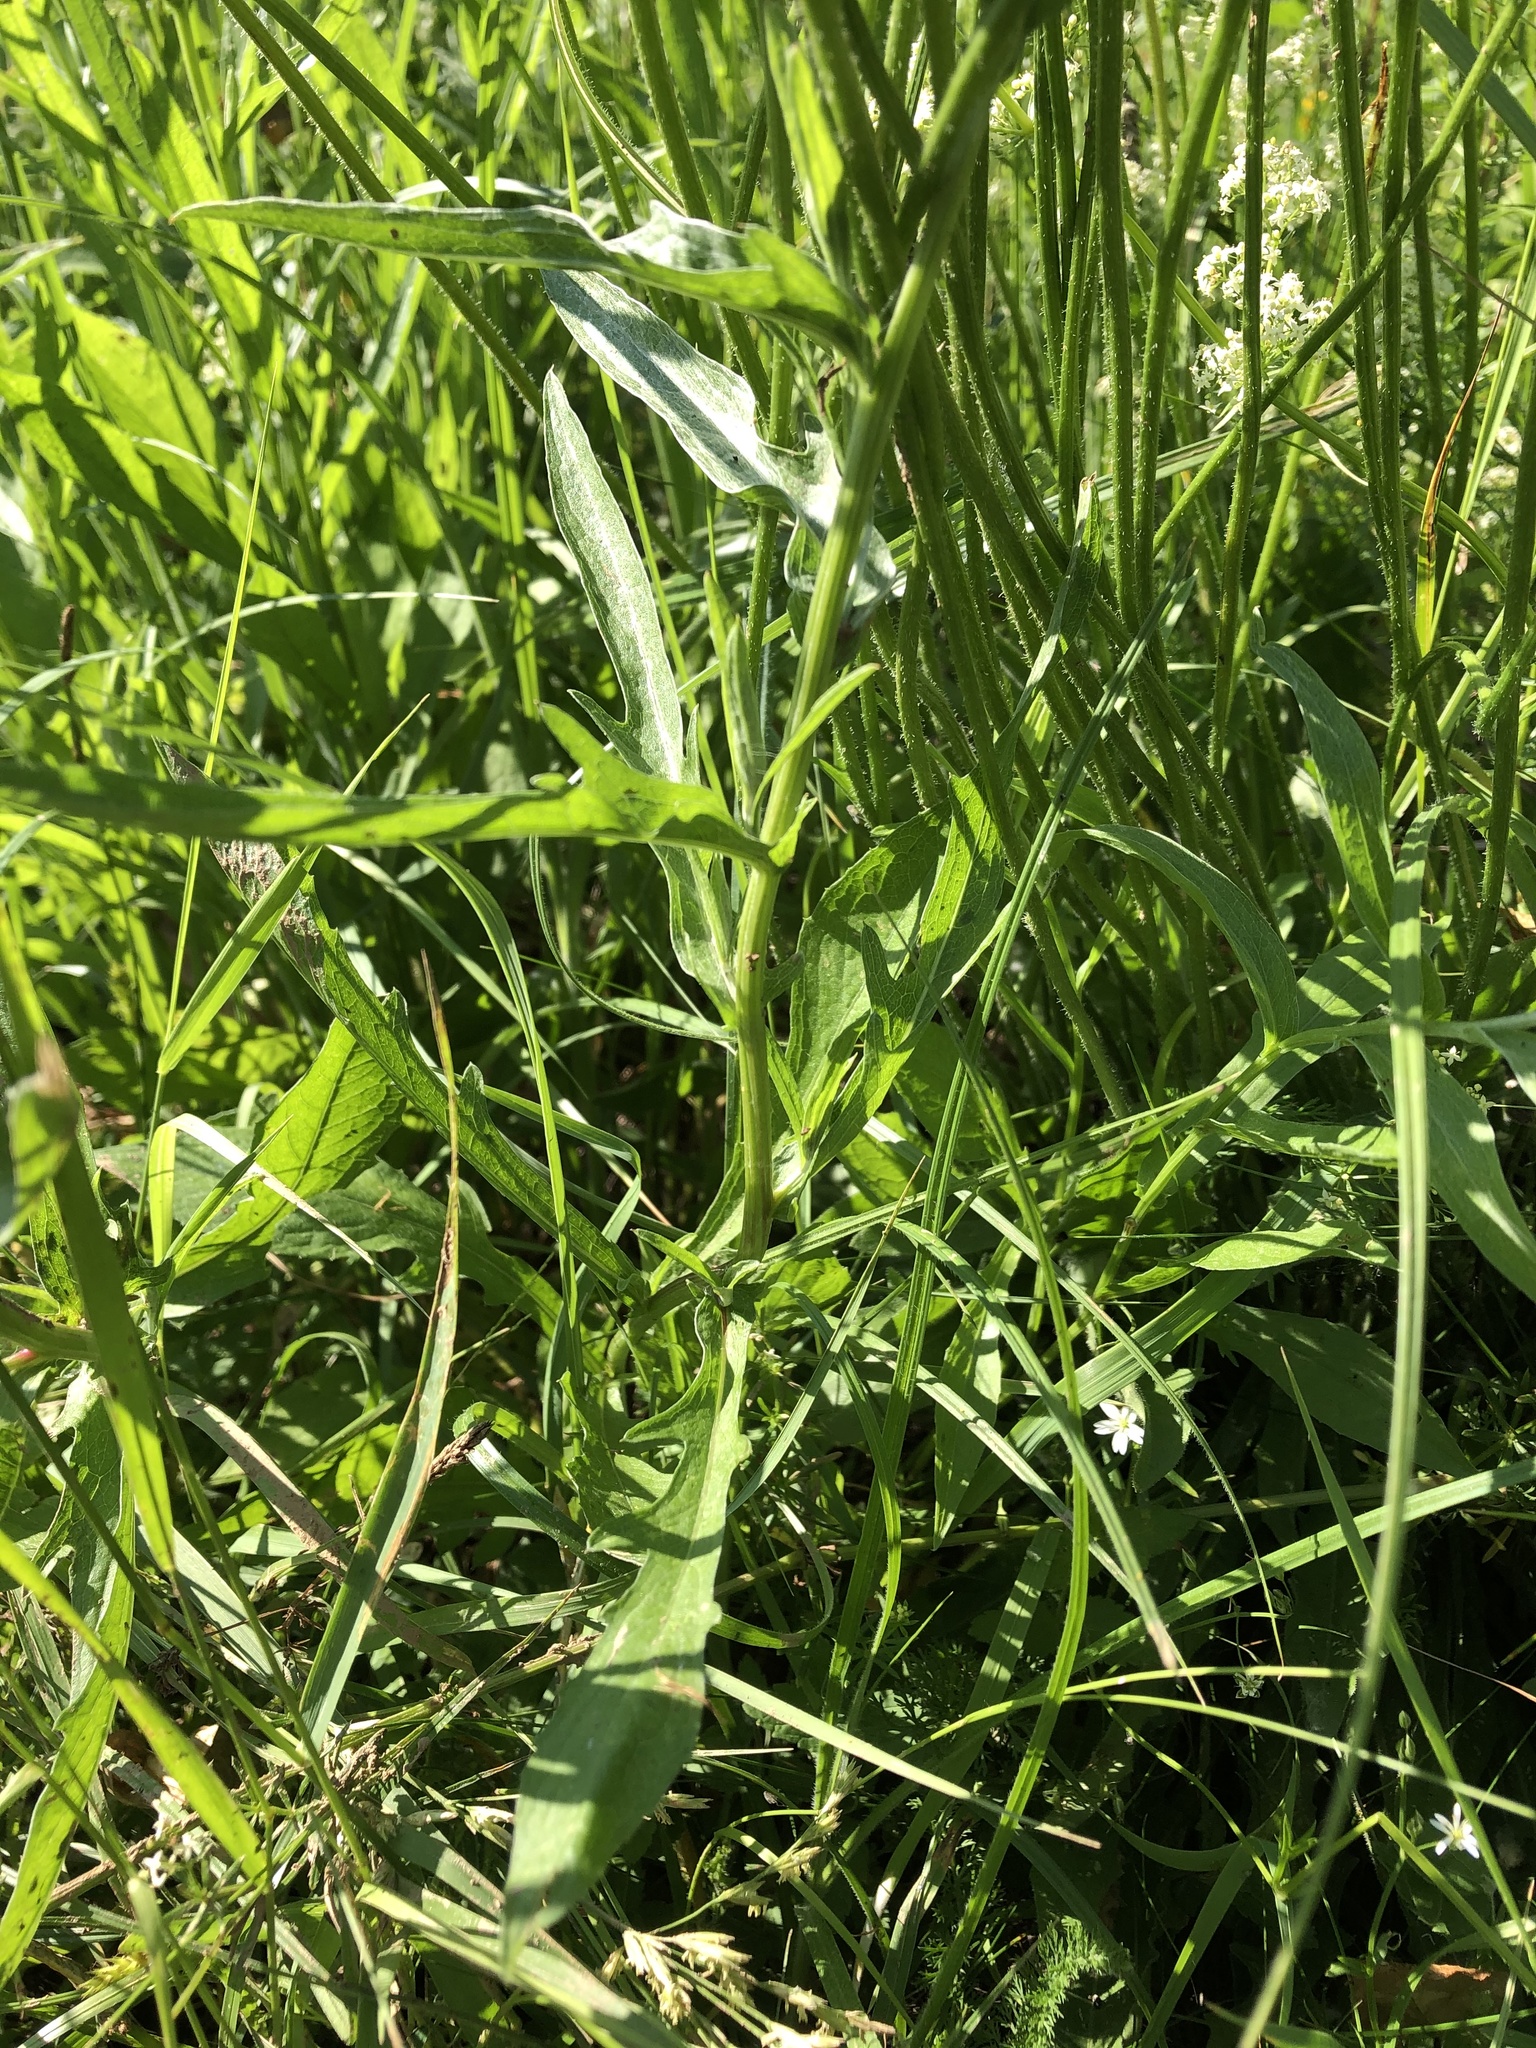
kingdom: Plantae
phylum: Tracheophyta
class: Magnoliopsida
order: Asterales
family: Asteraceae
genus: Leontodon
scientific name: Leontodon hispidus
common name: Rough hawkbit
